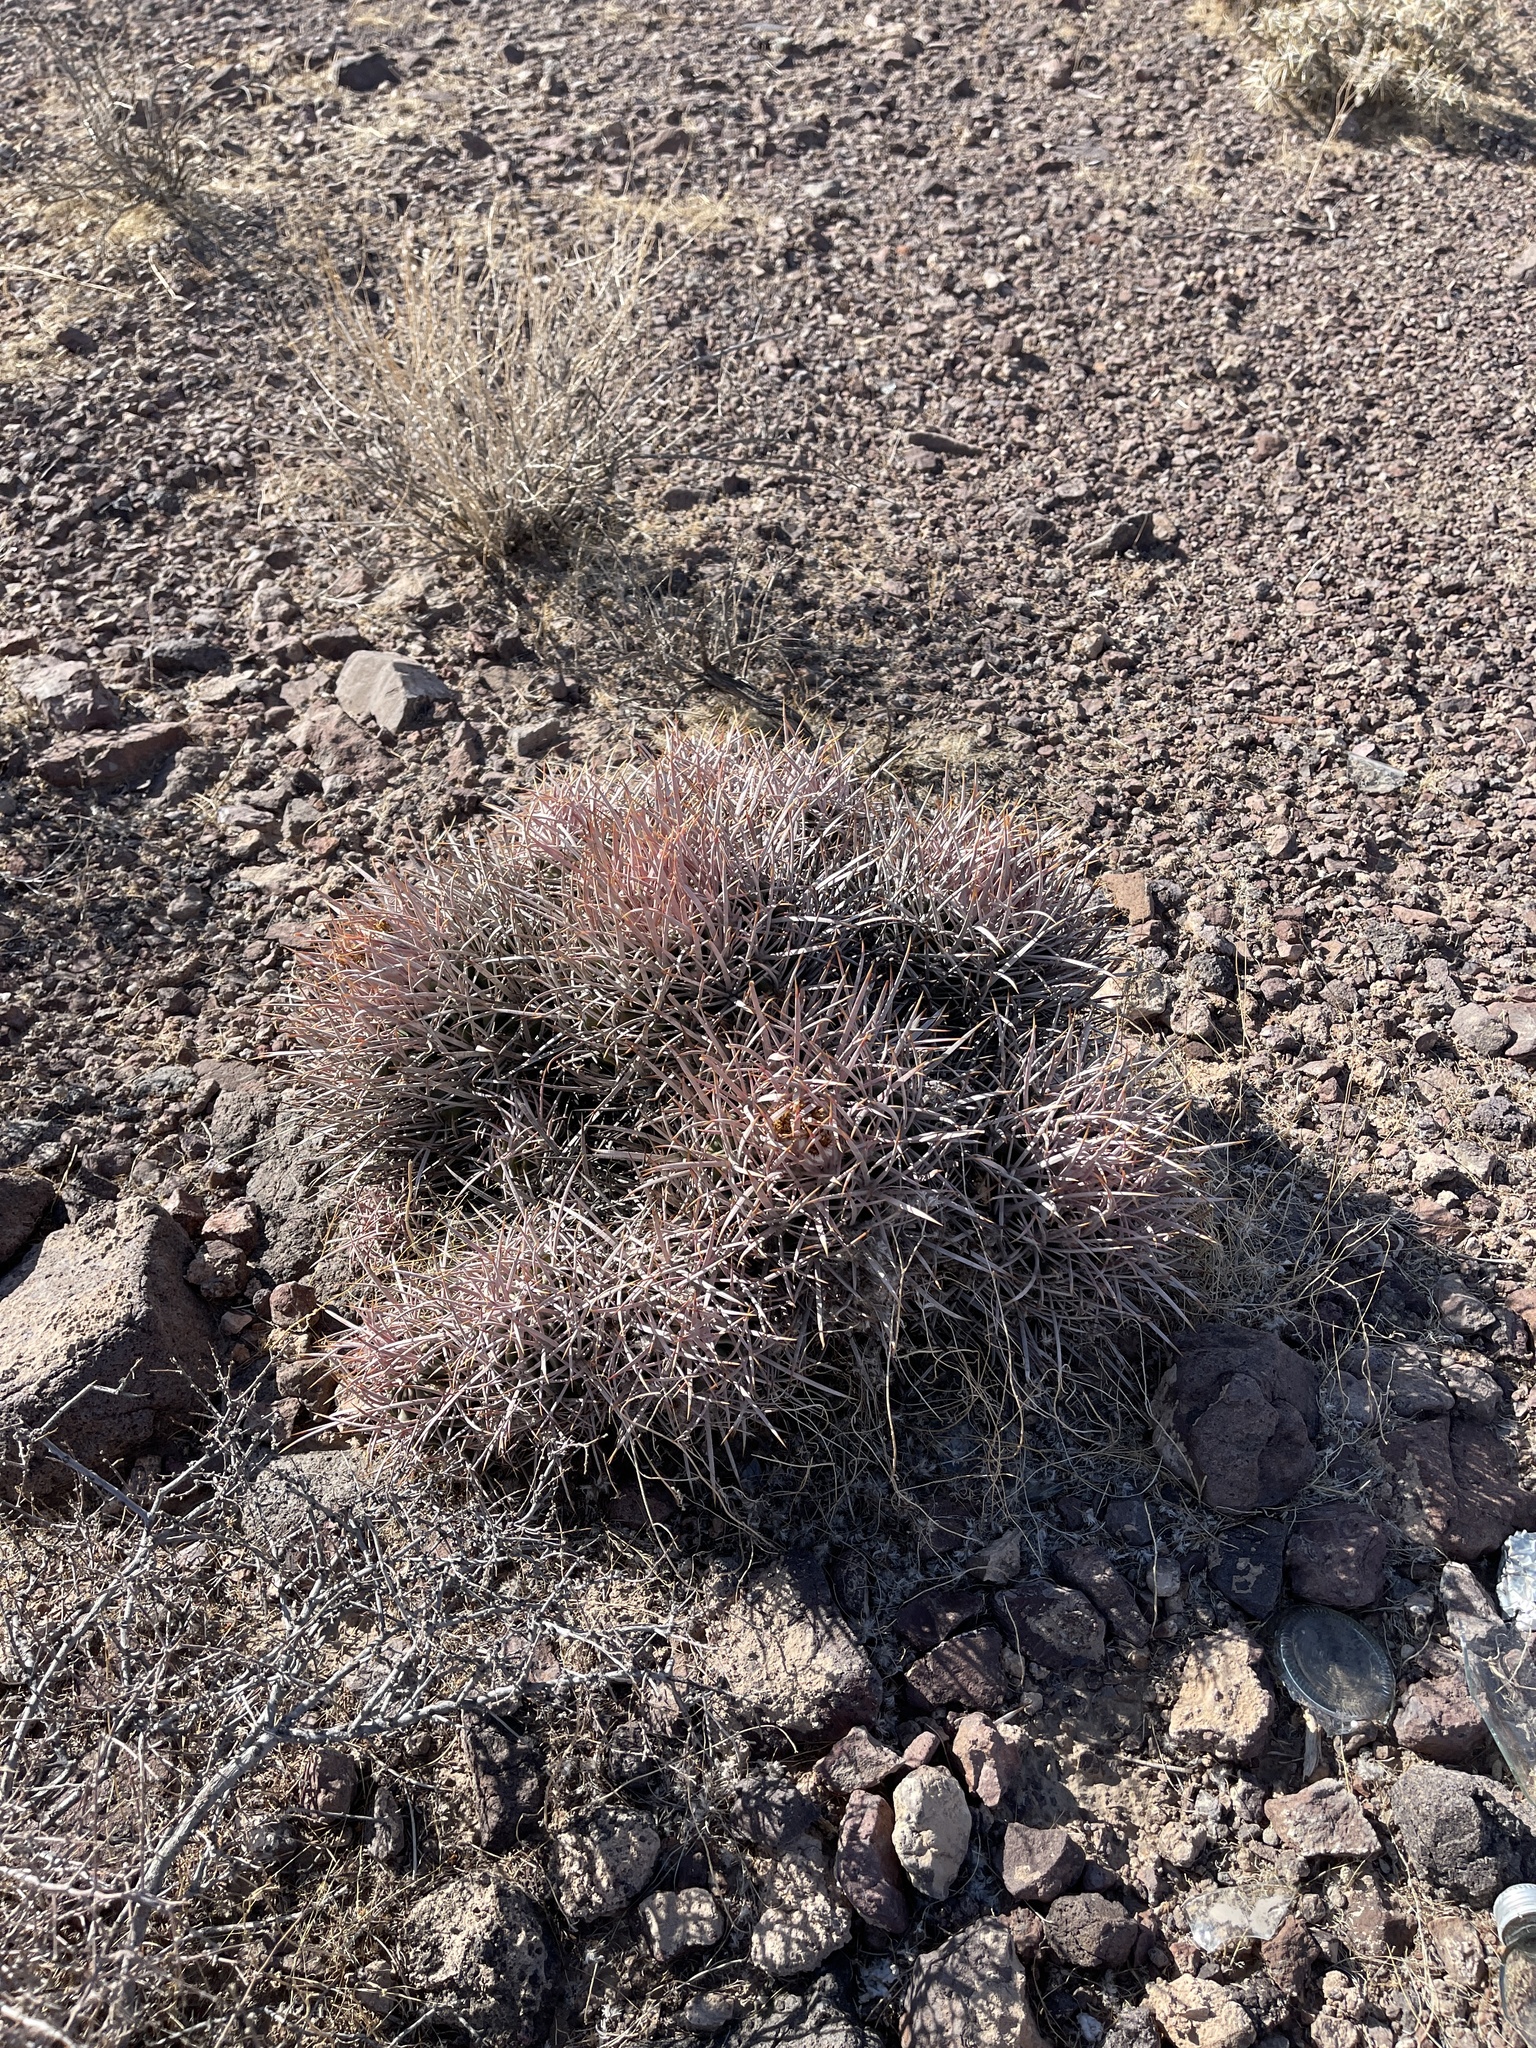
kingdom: Plantae
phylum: Tracheophyta
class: Magnoliopsida
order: Caryophyllales
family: Cactaceae
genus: Echinocactus
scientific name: Echinocactus polycephalus
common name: Cottontop cactus
